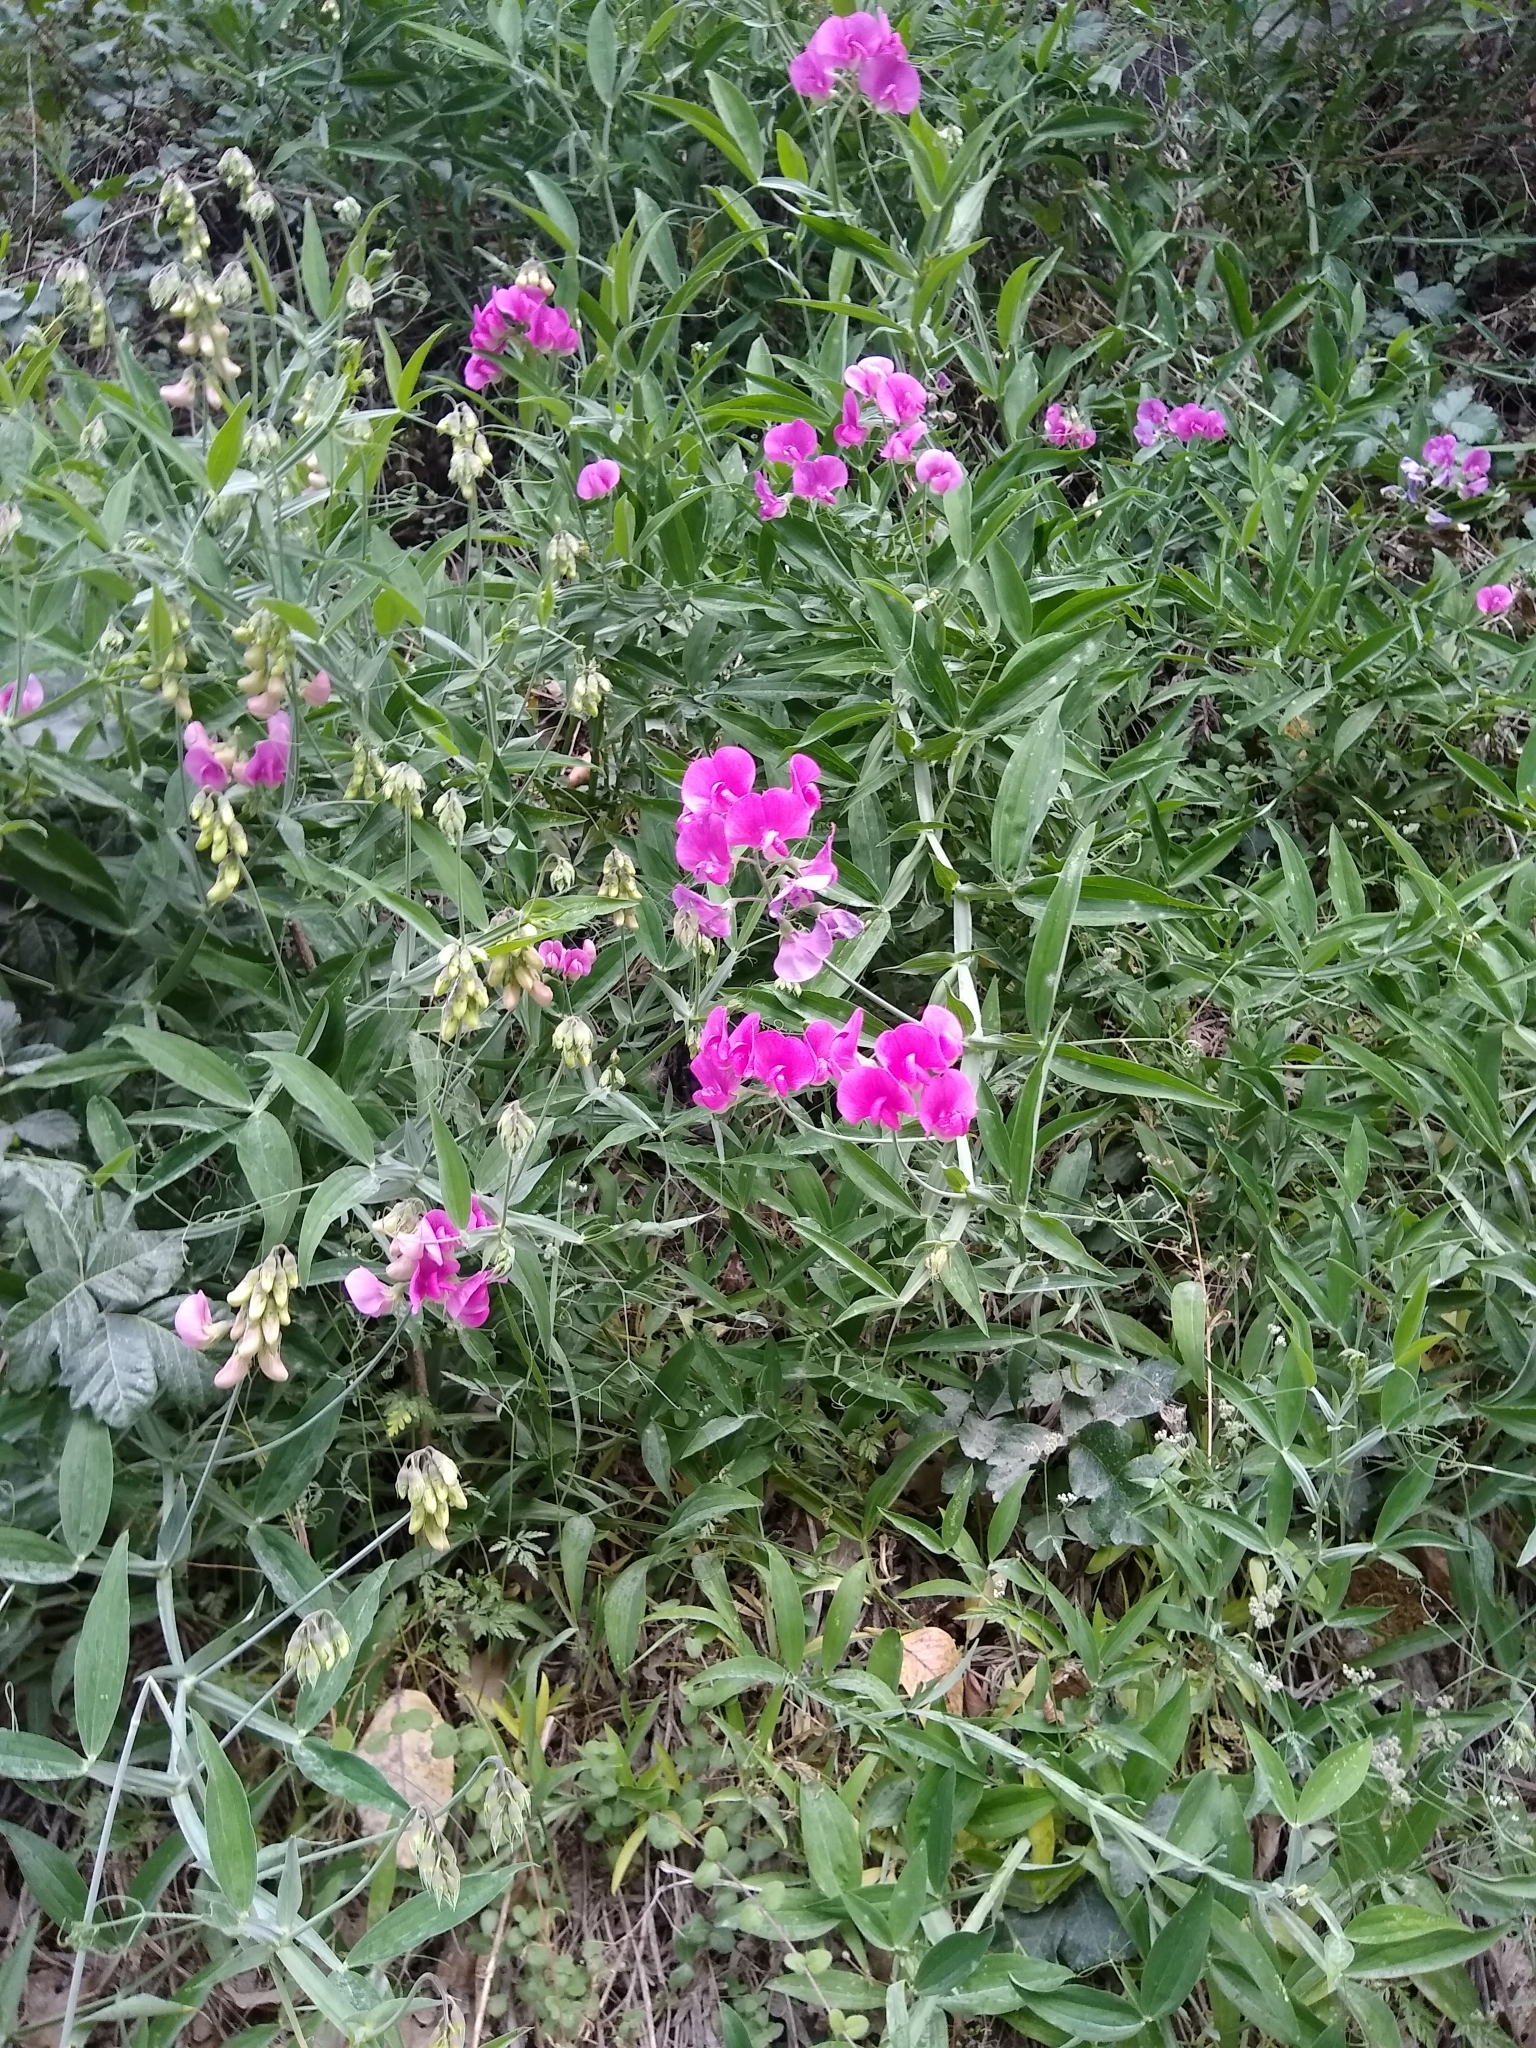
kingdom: Plantae
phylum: Tracheophyta
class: Magnoliopsida
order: Fabales
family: Fabaceae
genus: Lathyrus
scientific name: Lathyrus latifolius
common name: Perennial pea
